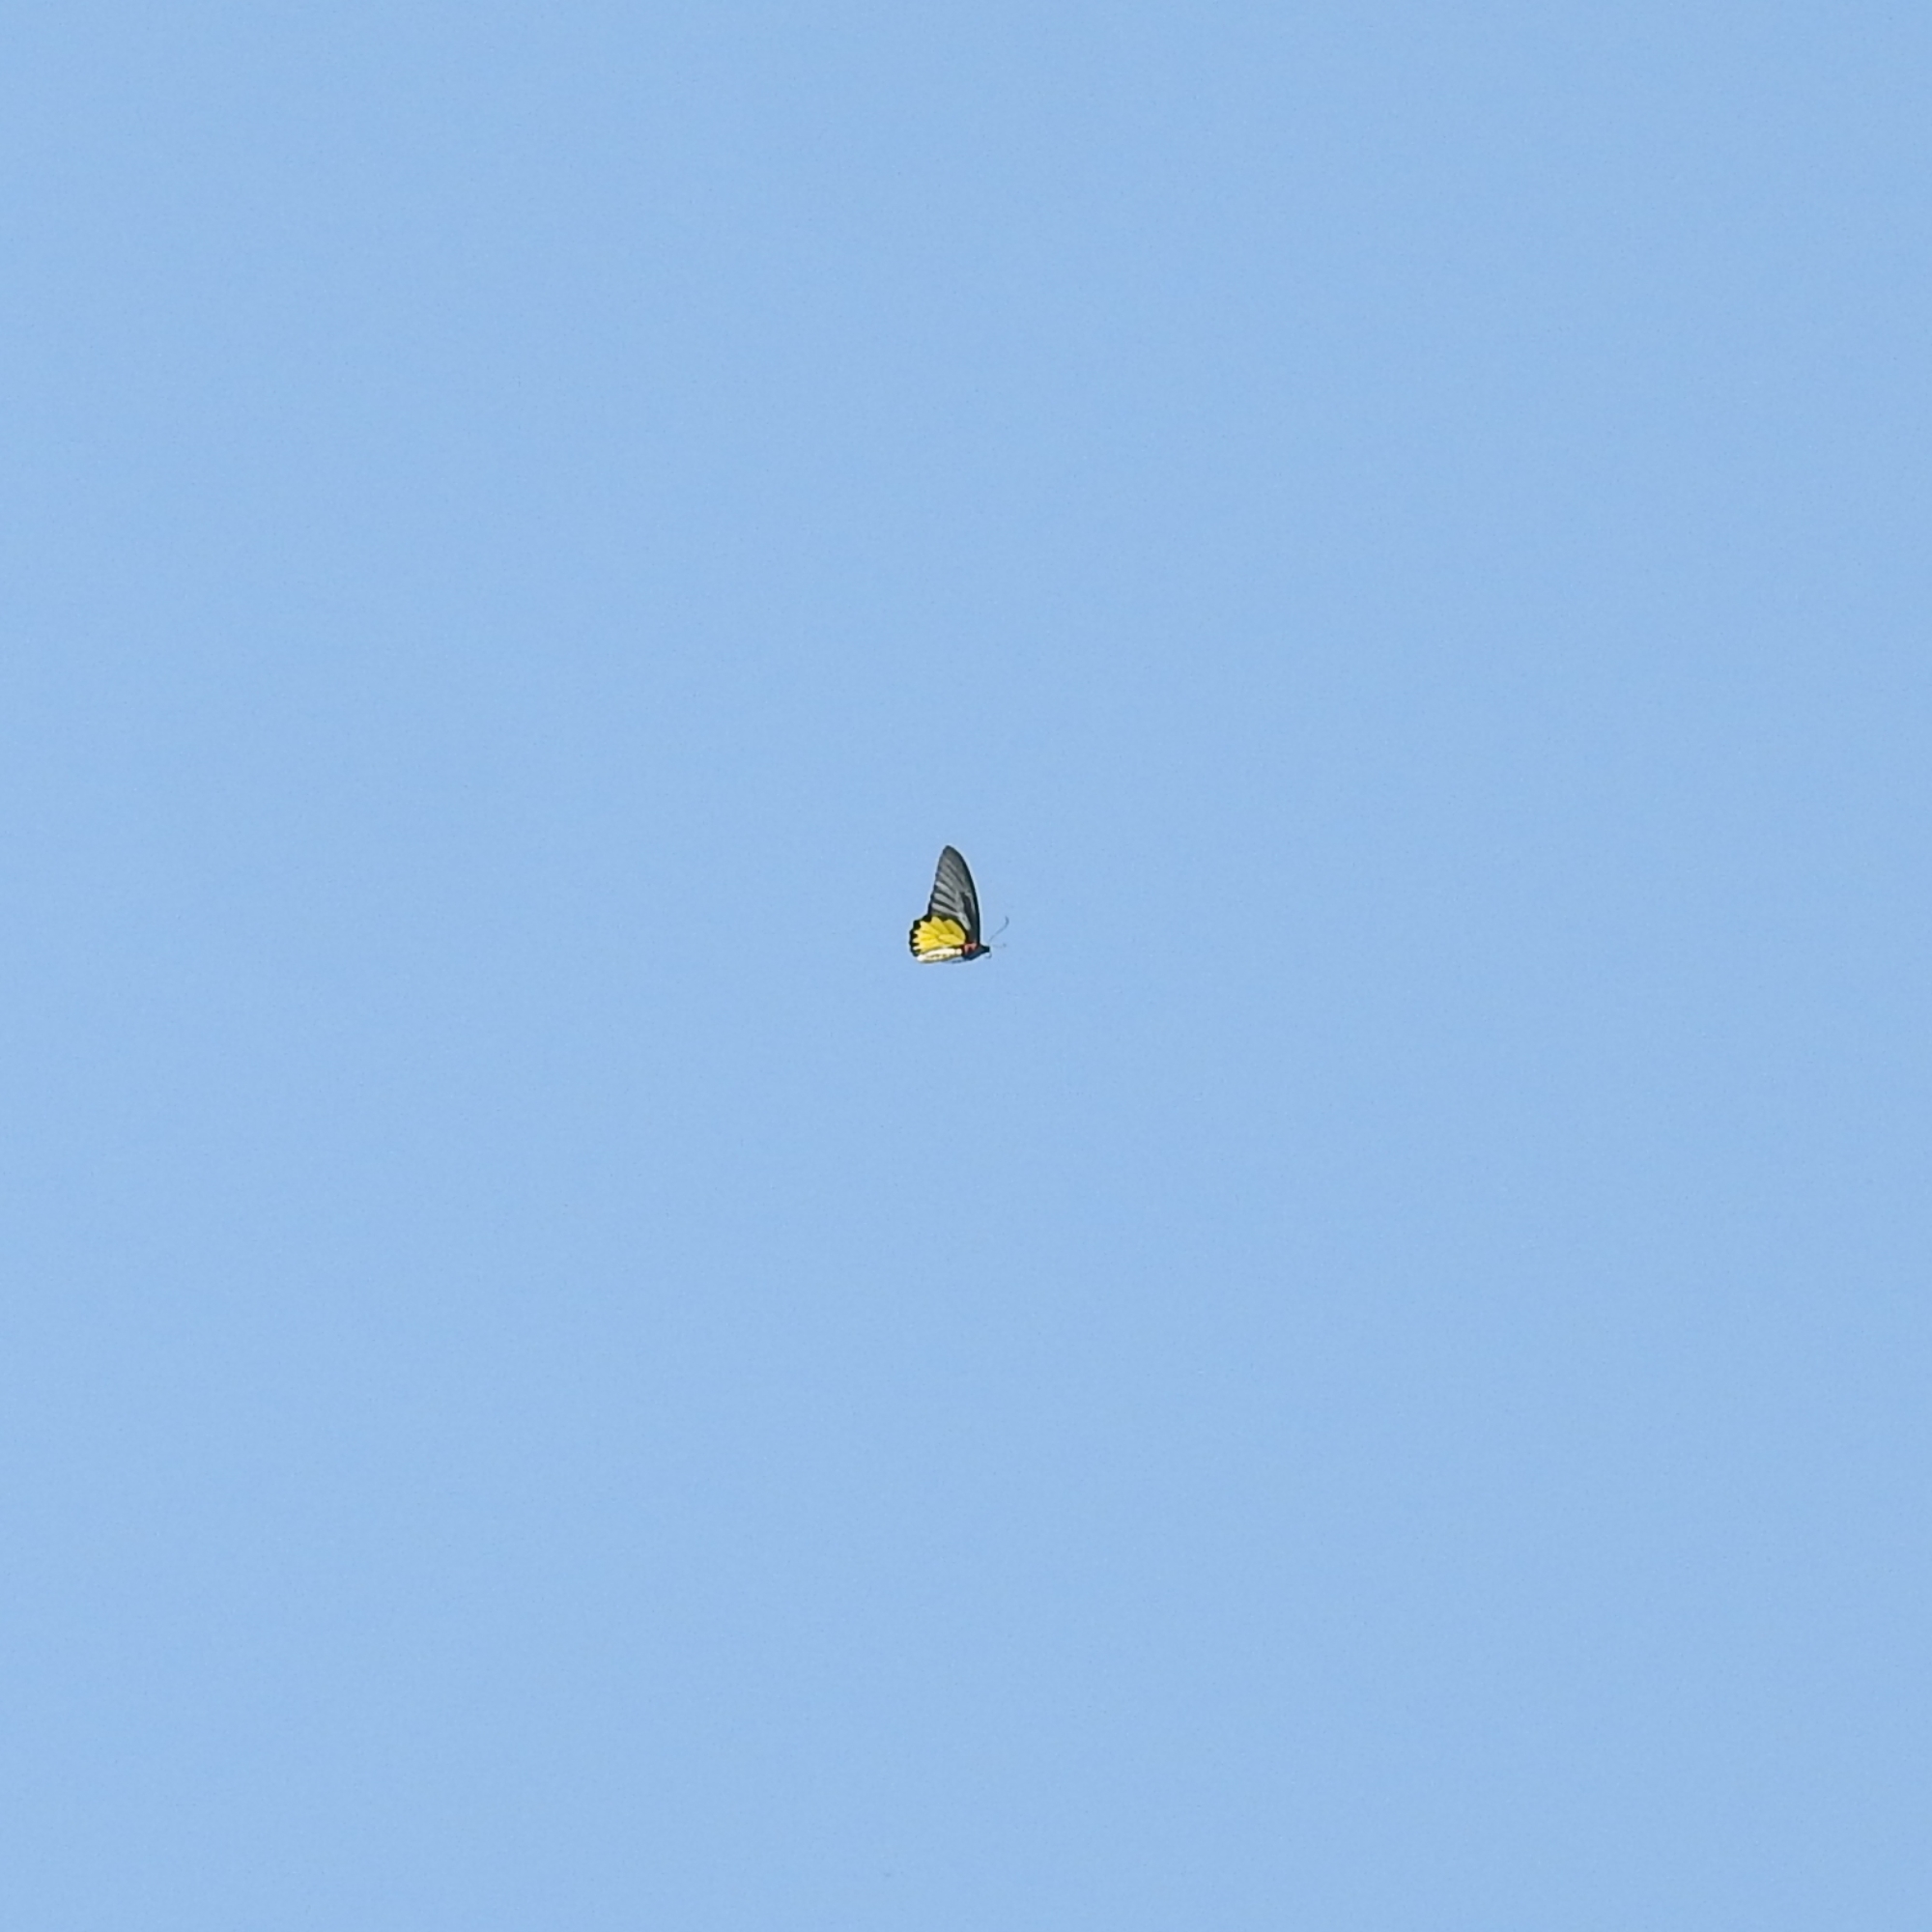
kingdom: Animalia
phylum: Arthropoda
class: Insecta
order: Lepidoptera
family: Papilionidae
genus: Troides
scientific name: Troides minos
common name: Malabar birdwing
